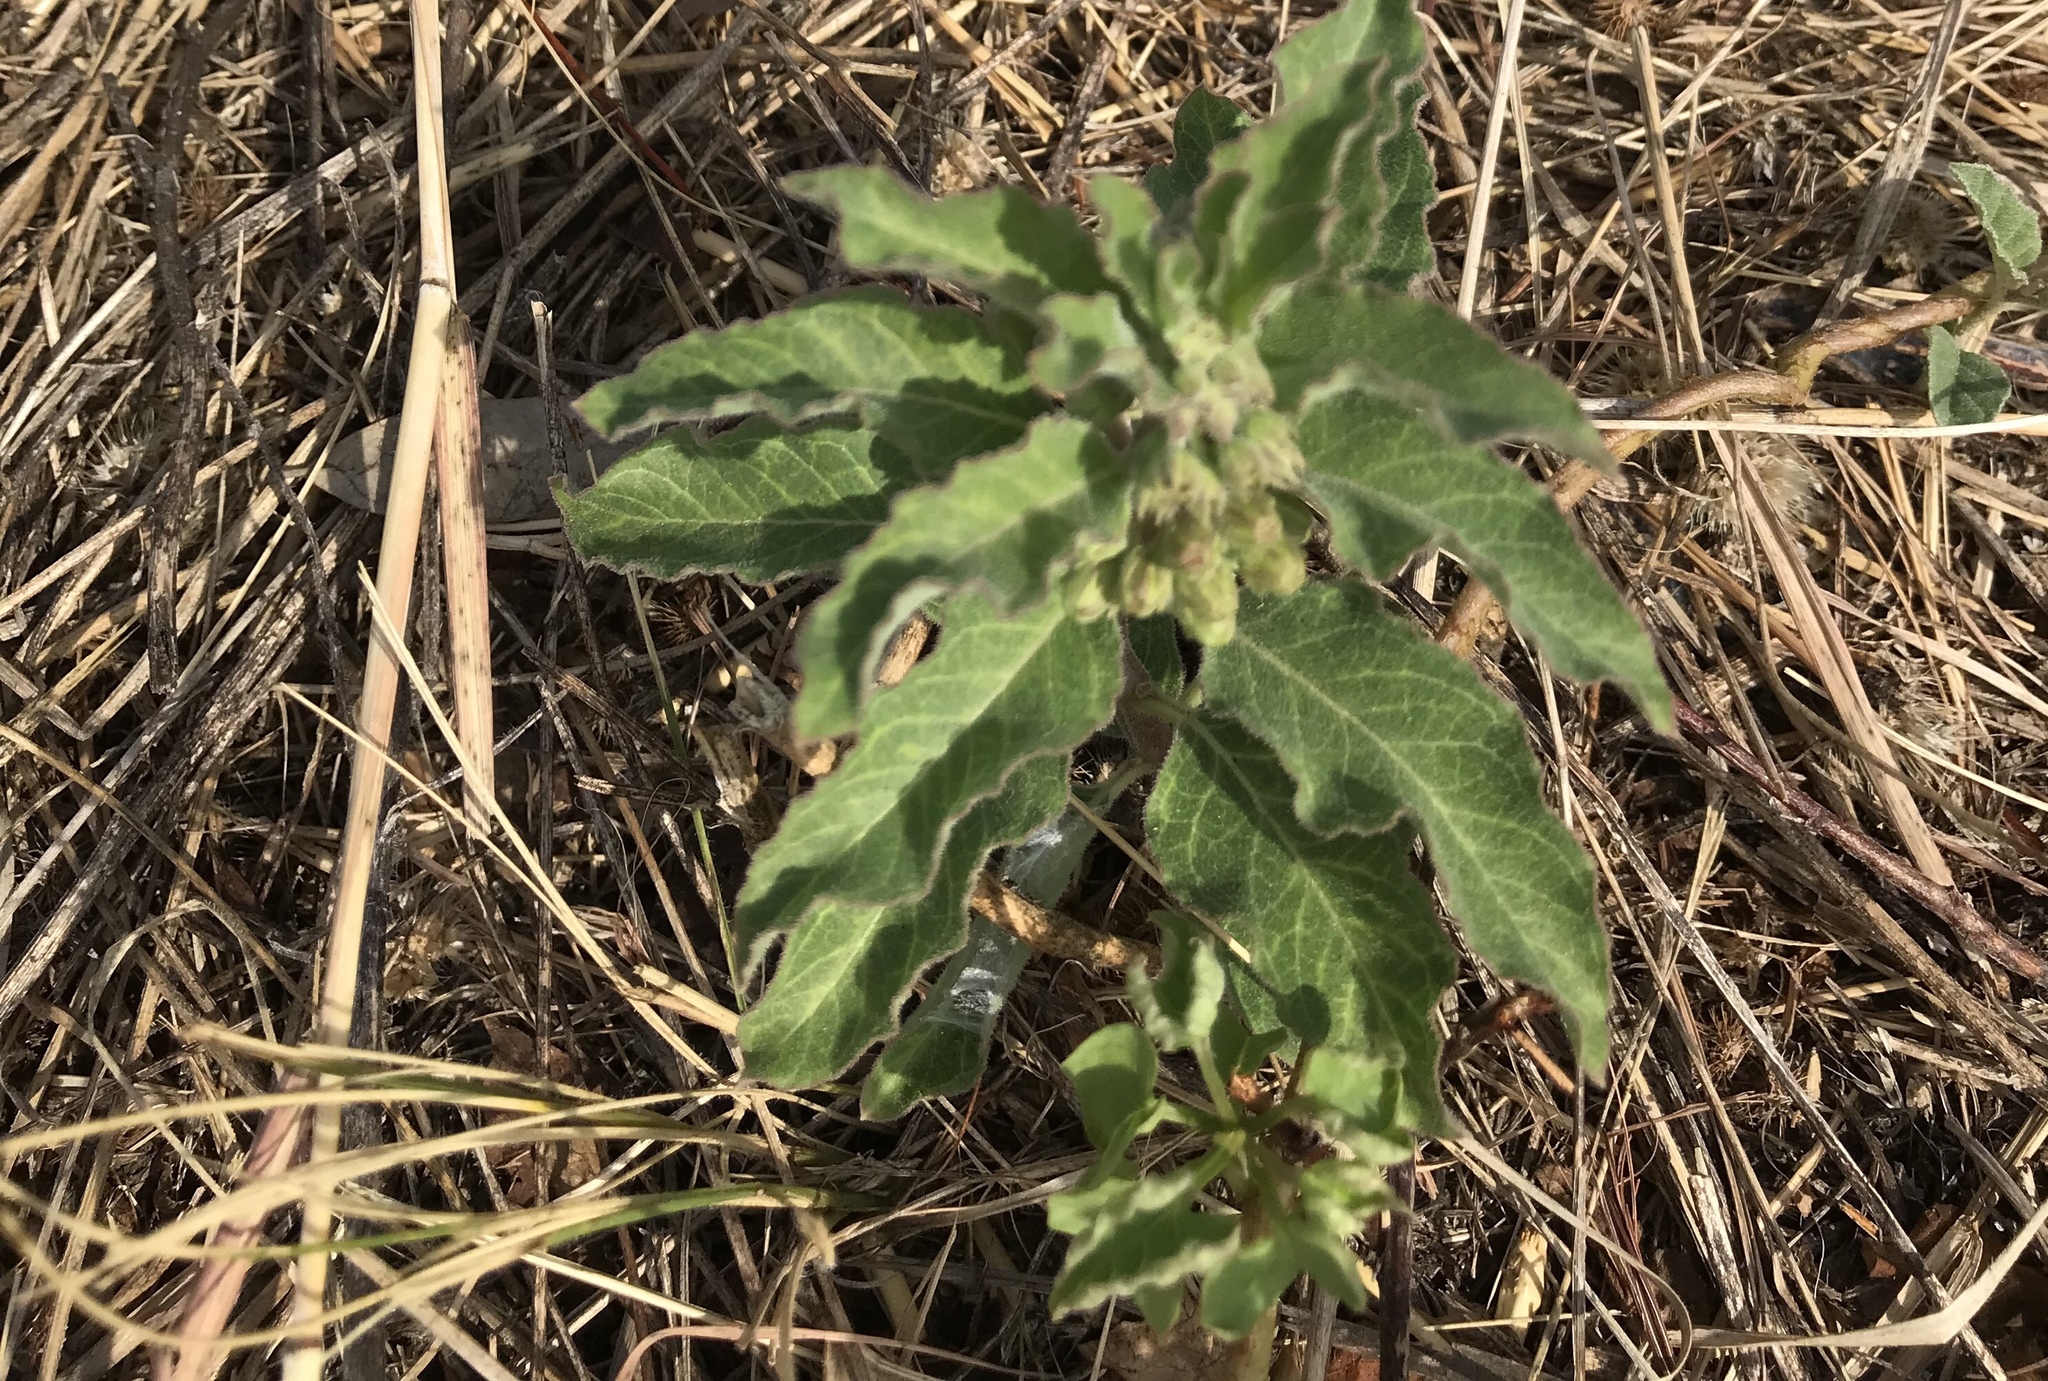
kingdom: Plantae
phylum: Tracheophyta
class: Magnoliopsida
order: Gentianales
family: Apocynaceae
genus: Asclepias
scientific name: Asclepias oenotheroides
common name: Zizotes milkweed
